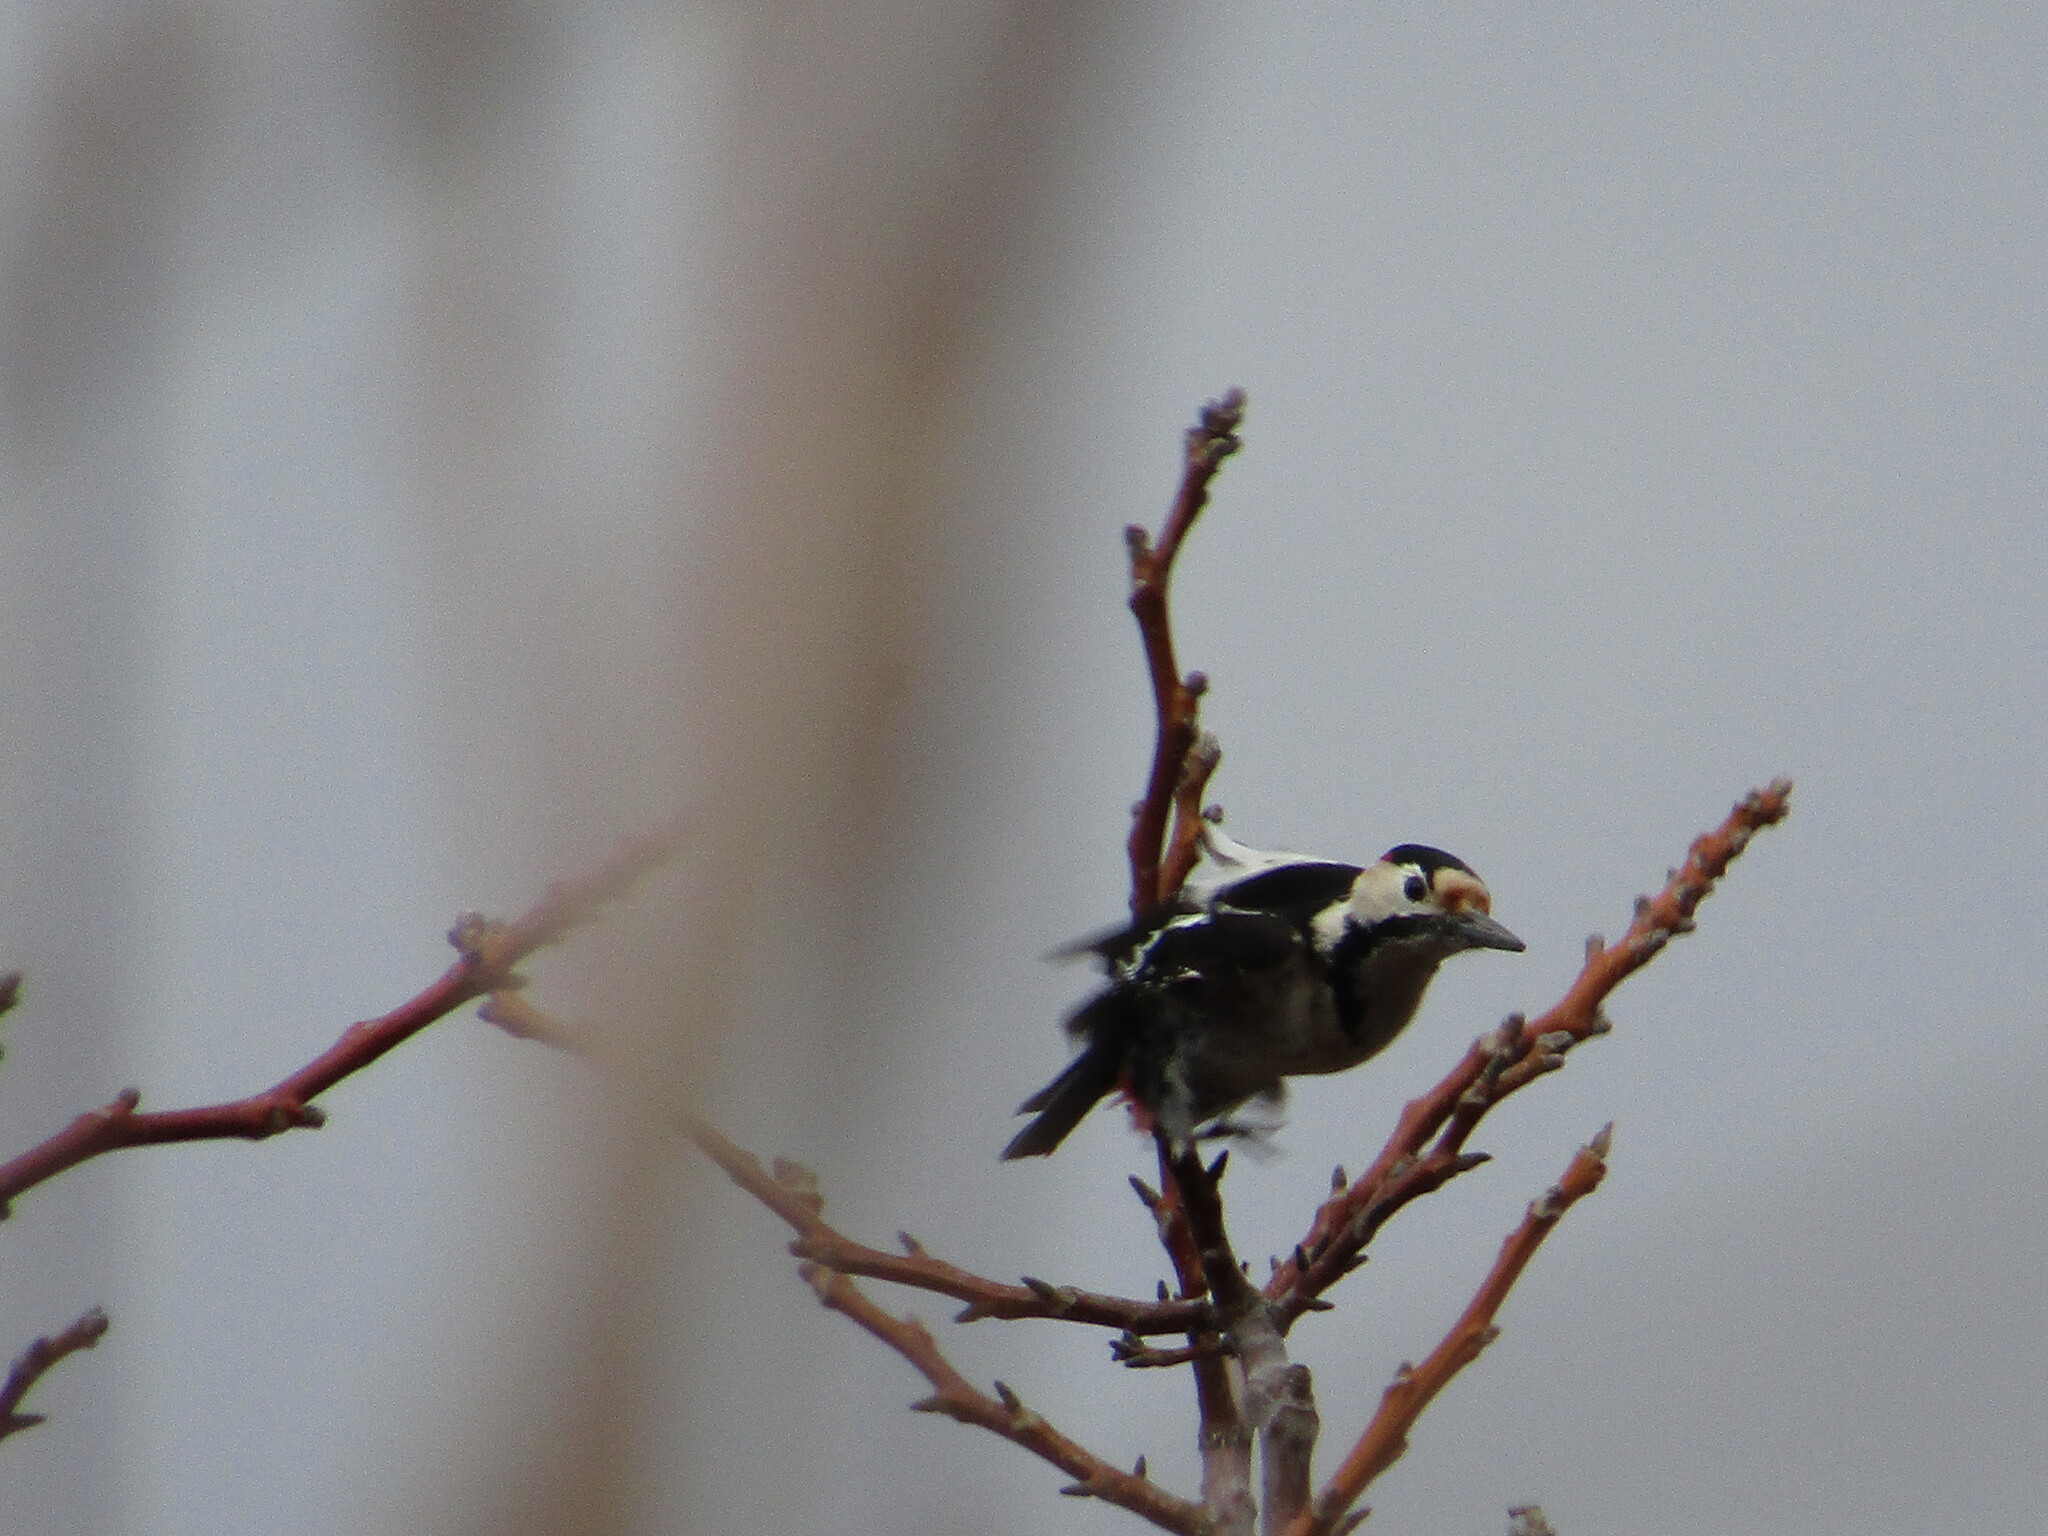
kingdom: Animalia
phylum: Chordata
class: Aves
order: Piciformes
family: Picidae
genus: Dendrocopos
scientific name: Dendrocopos syriacus
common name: Syrian woodpecker
